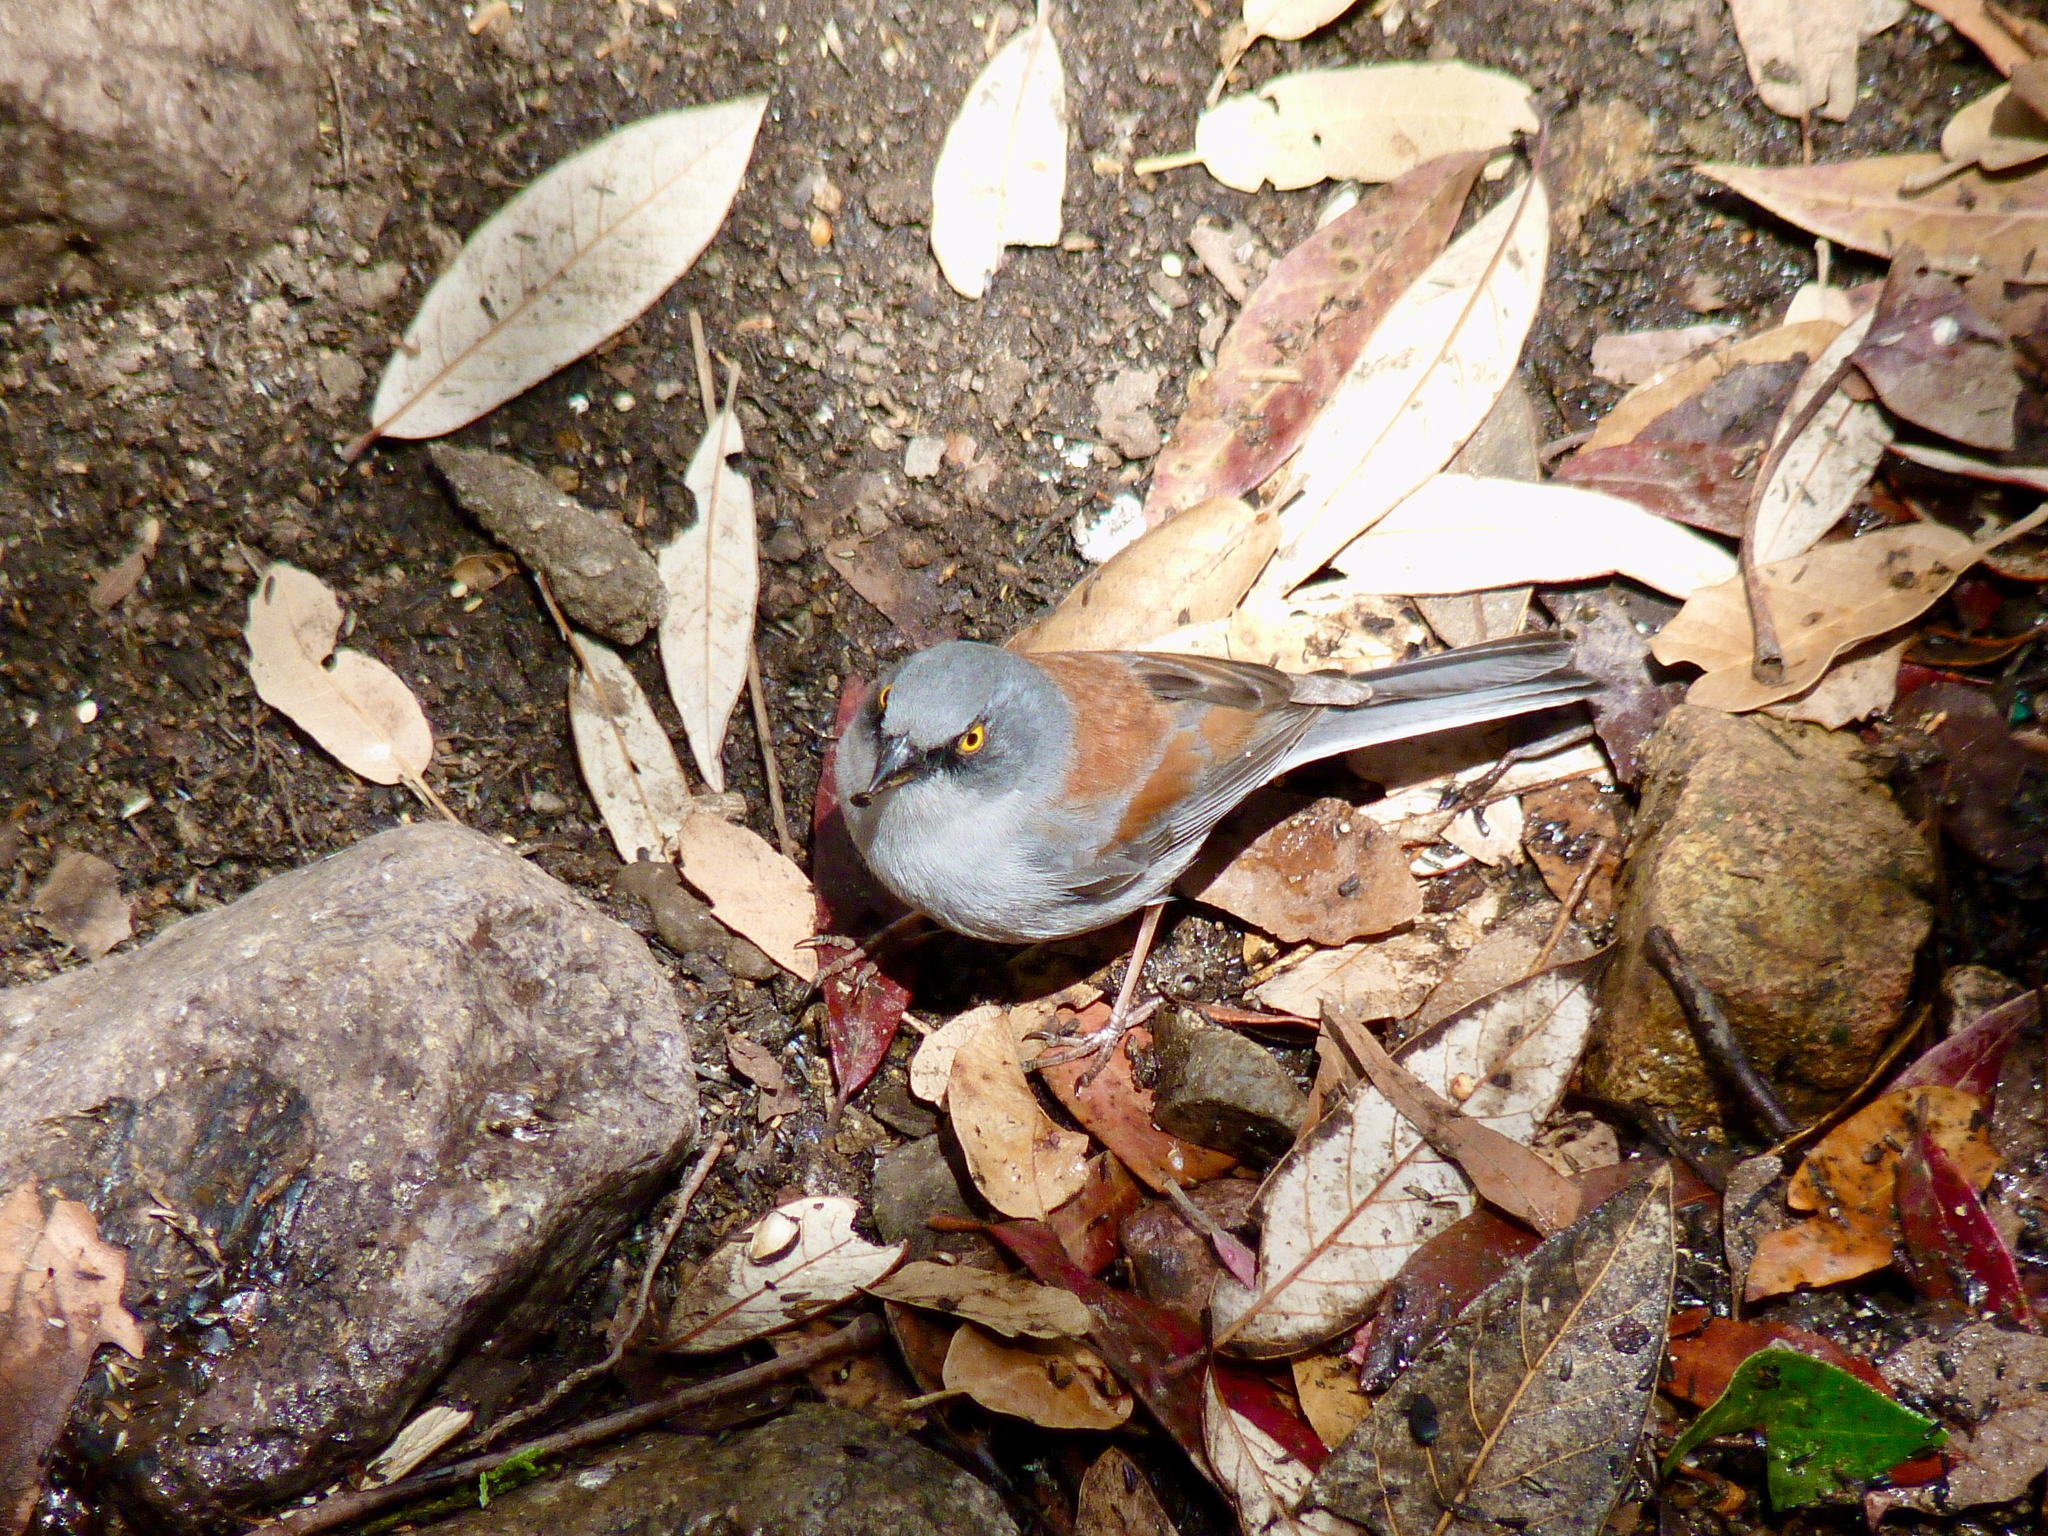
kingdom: Animalia
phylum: Chordata
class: Aves
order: Passeriformes
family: Passerellidae
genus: Junco
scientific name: Junco phaeonotus
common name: Yellow-eyed junco
